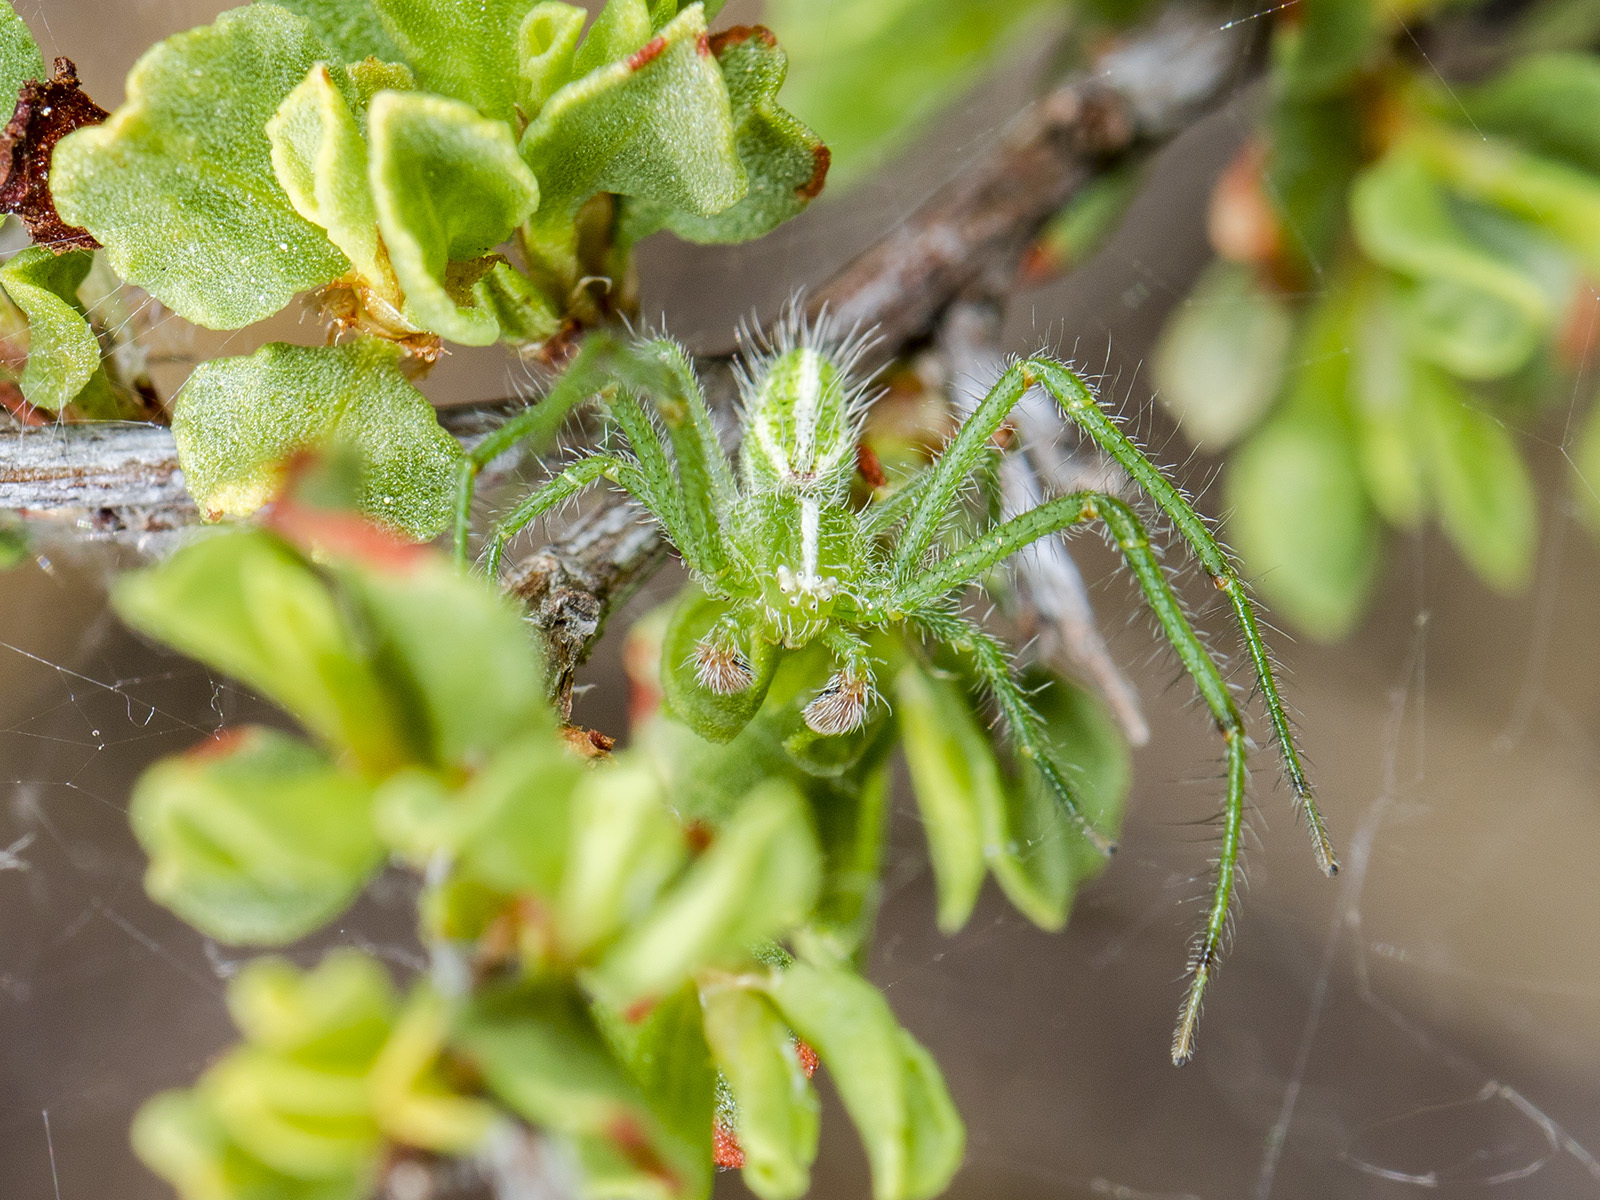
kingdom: Animalia
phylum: Arthropoda
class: Arachnida
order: Araneae
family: Thomisidae
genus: Heriaeus
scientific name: Heriaeus oblongus
